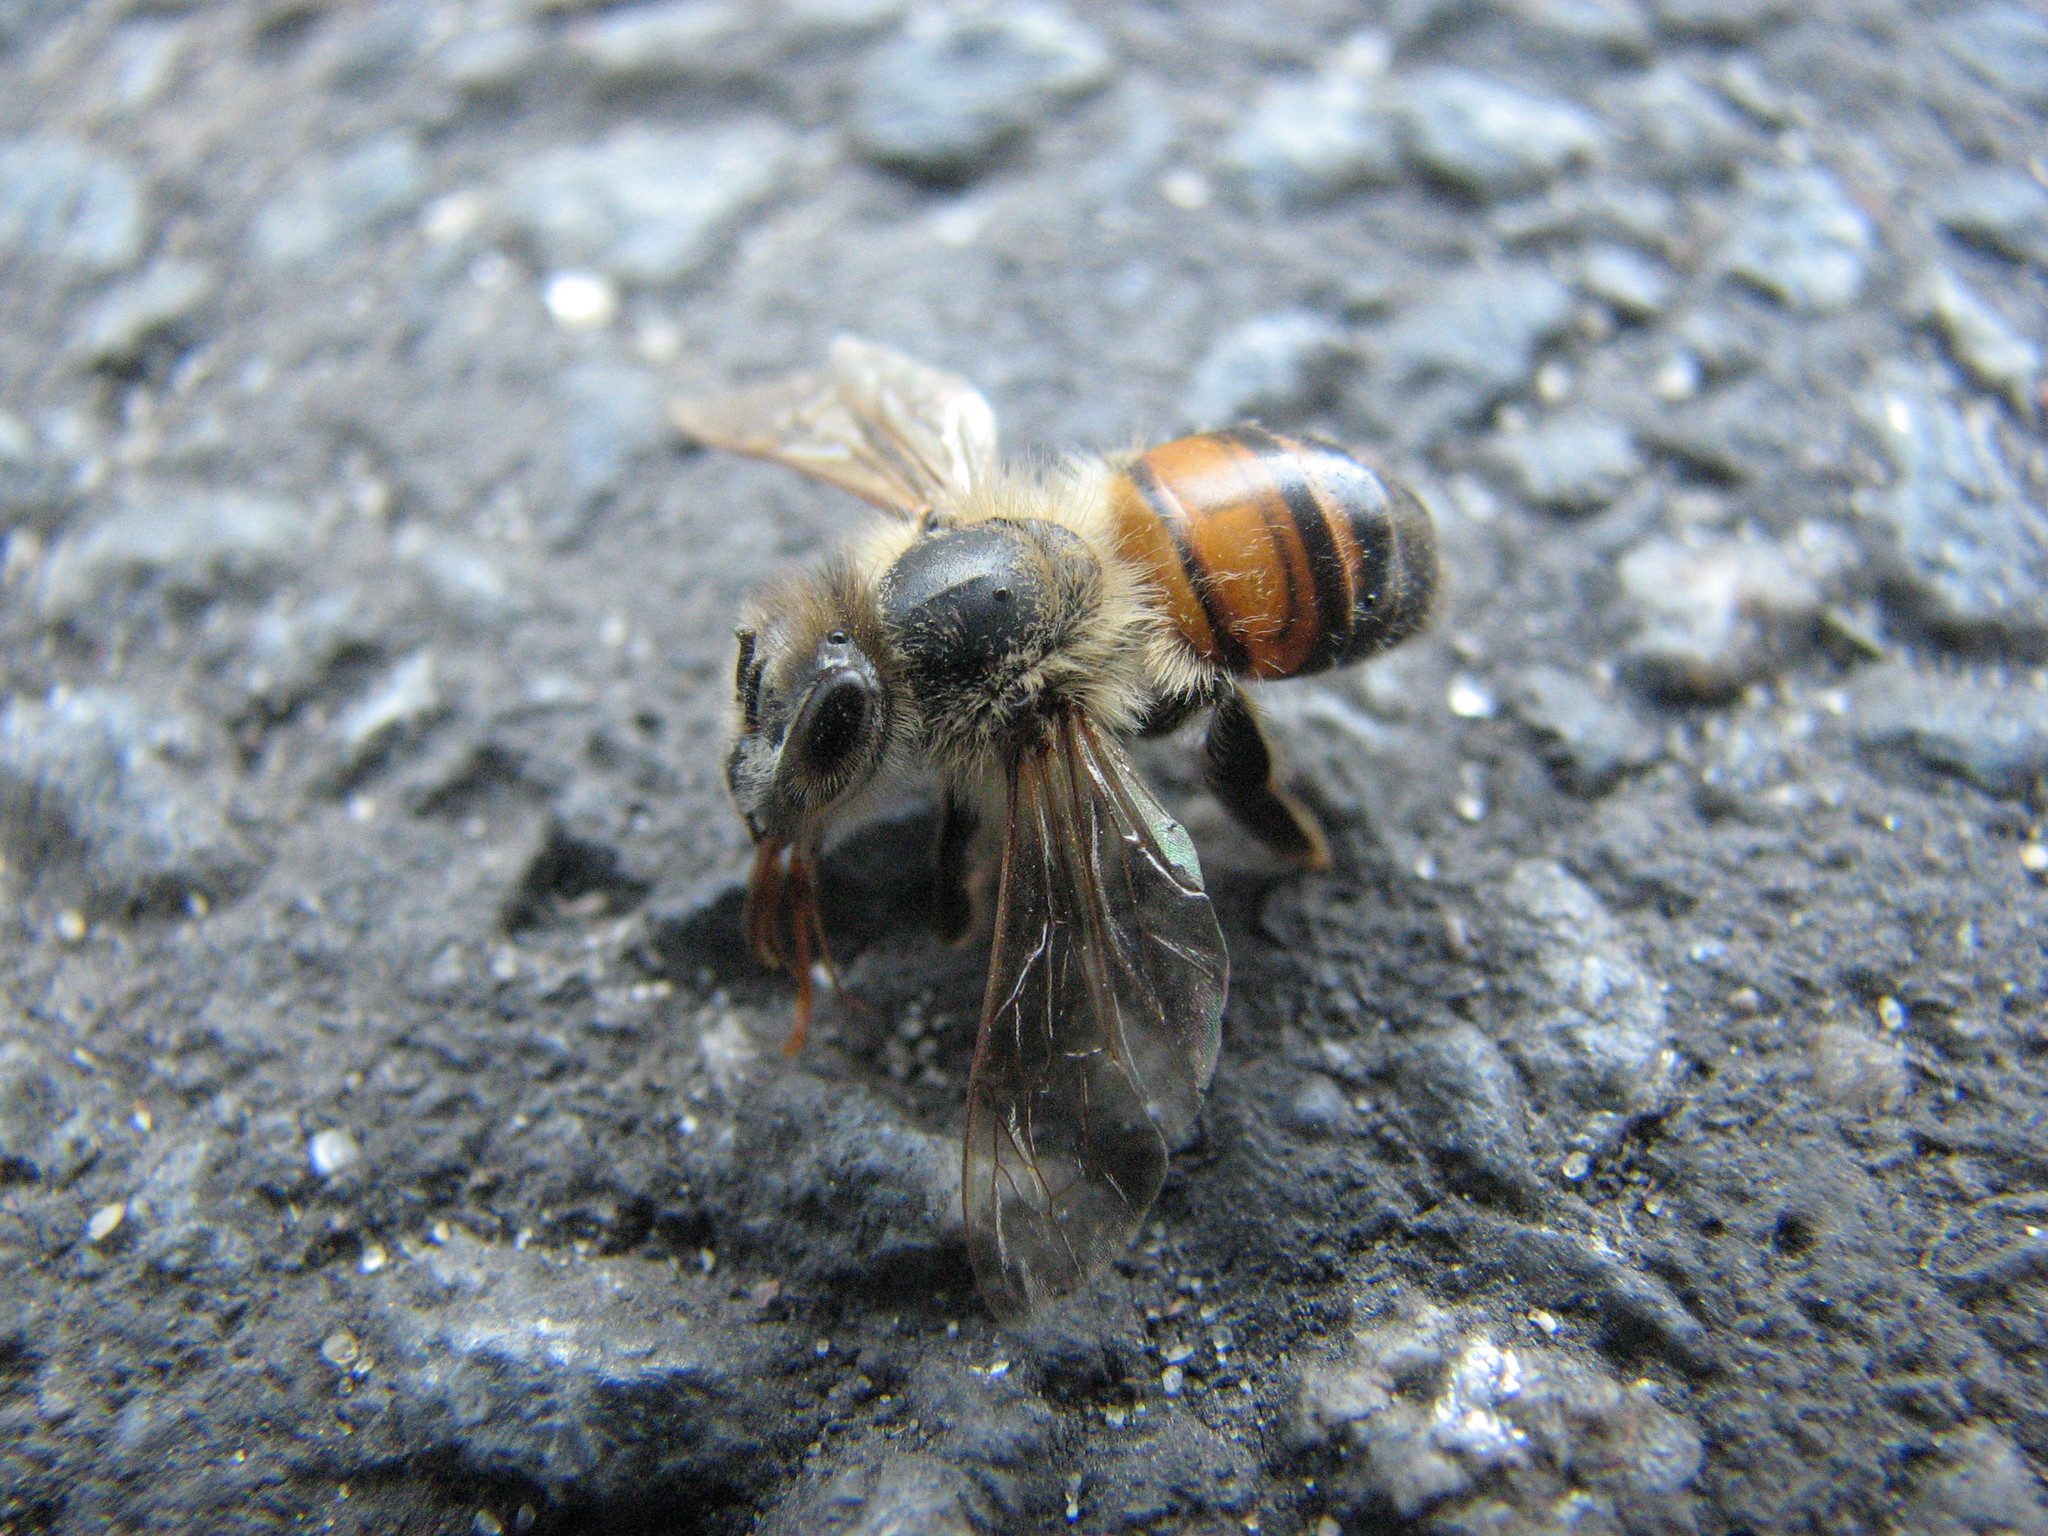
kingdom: Animalia
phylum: Arthropoda
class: Insecta
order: Hymenoptera
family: Apidae
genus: Apis
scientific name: Apis mellifera
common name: Honey bee
